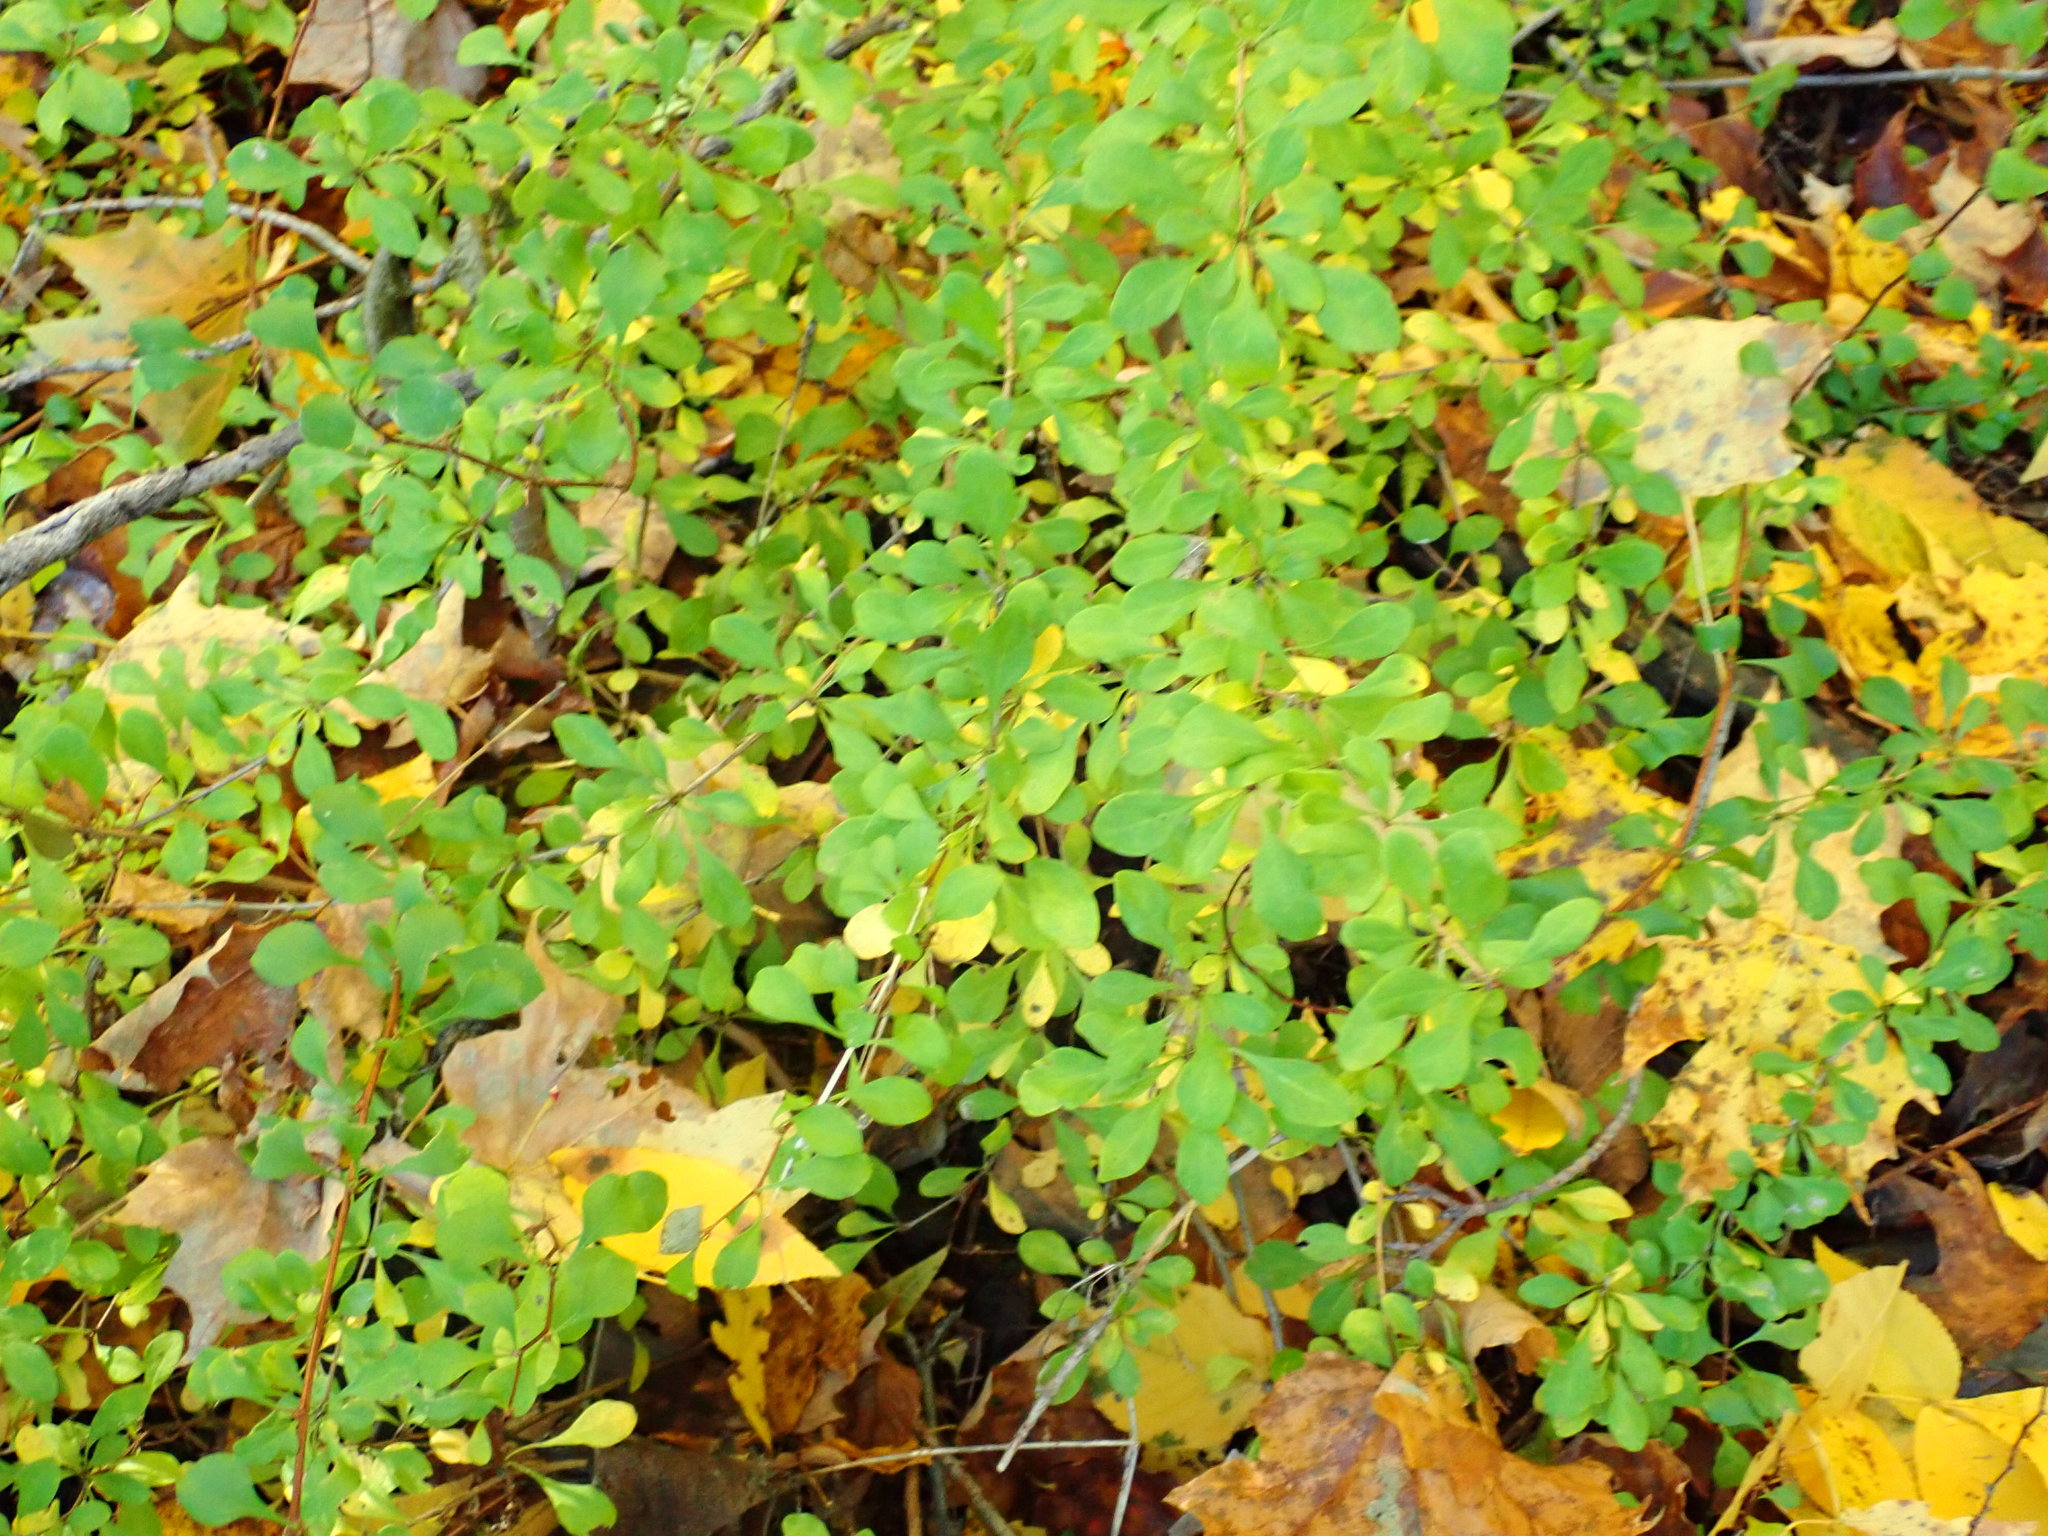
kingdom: Plantae
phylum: Tracheophyta
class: Magnoliopsida
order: Ranunculales
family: Berberidaceae
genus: Berberis
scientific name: Berberis thunbergii
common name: Japanese barberry
